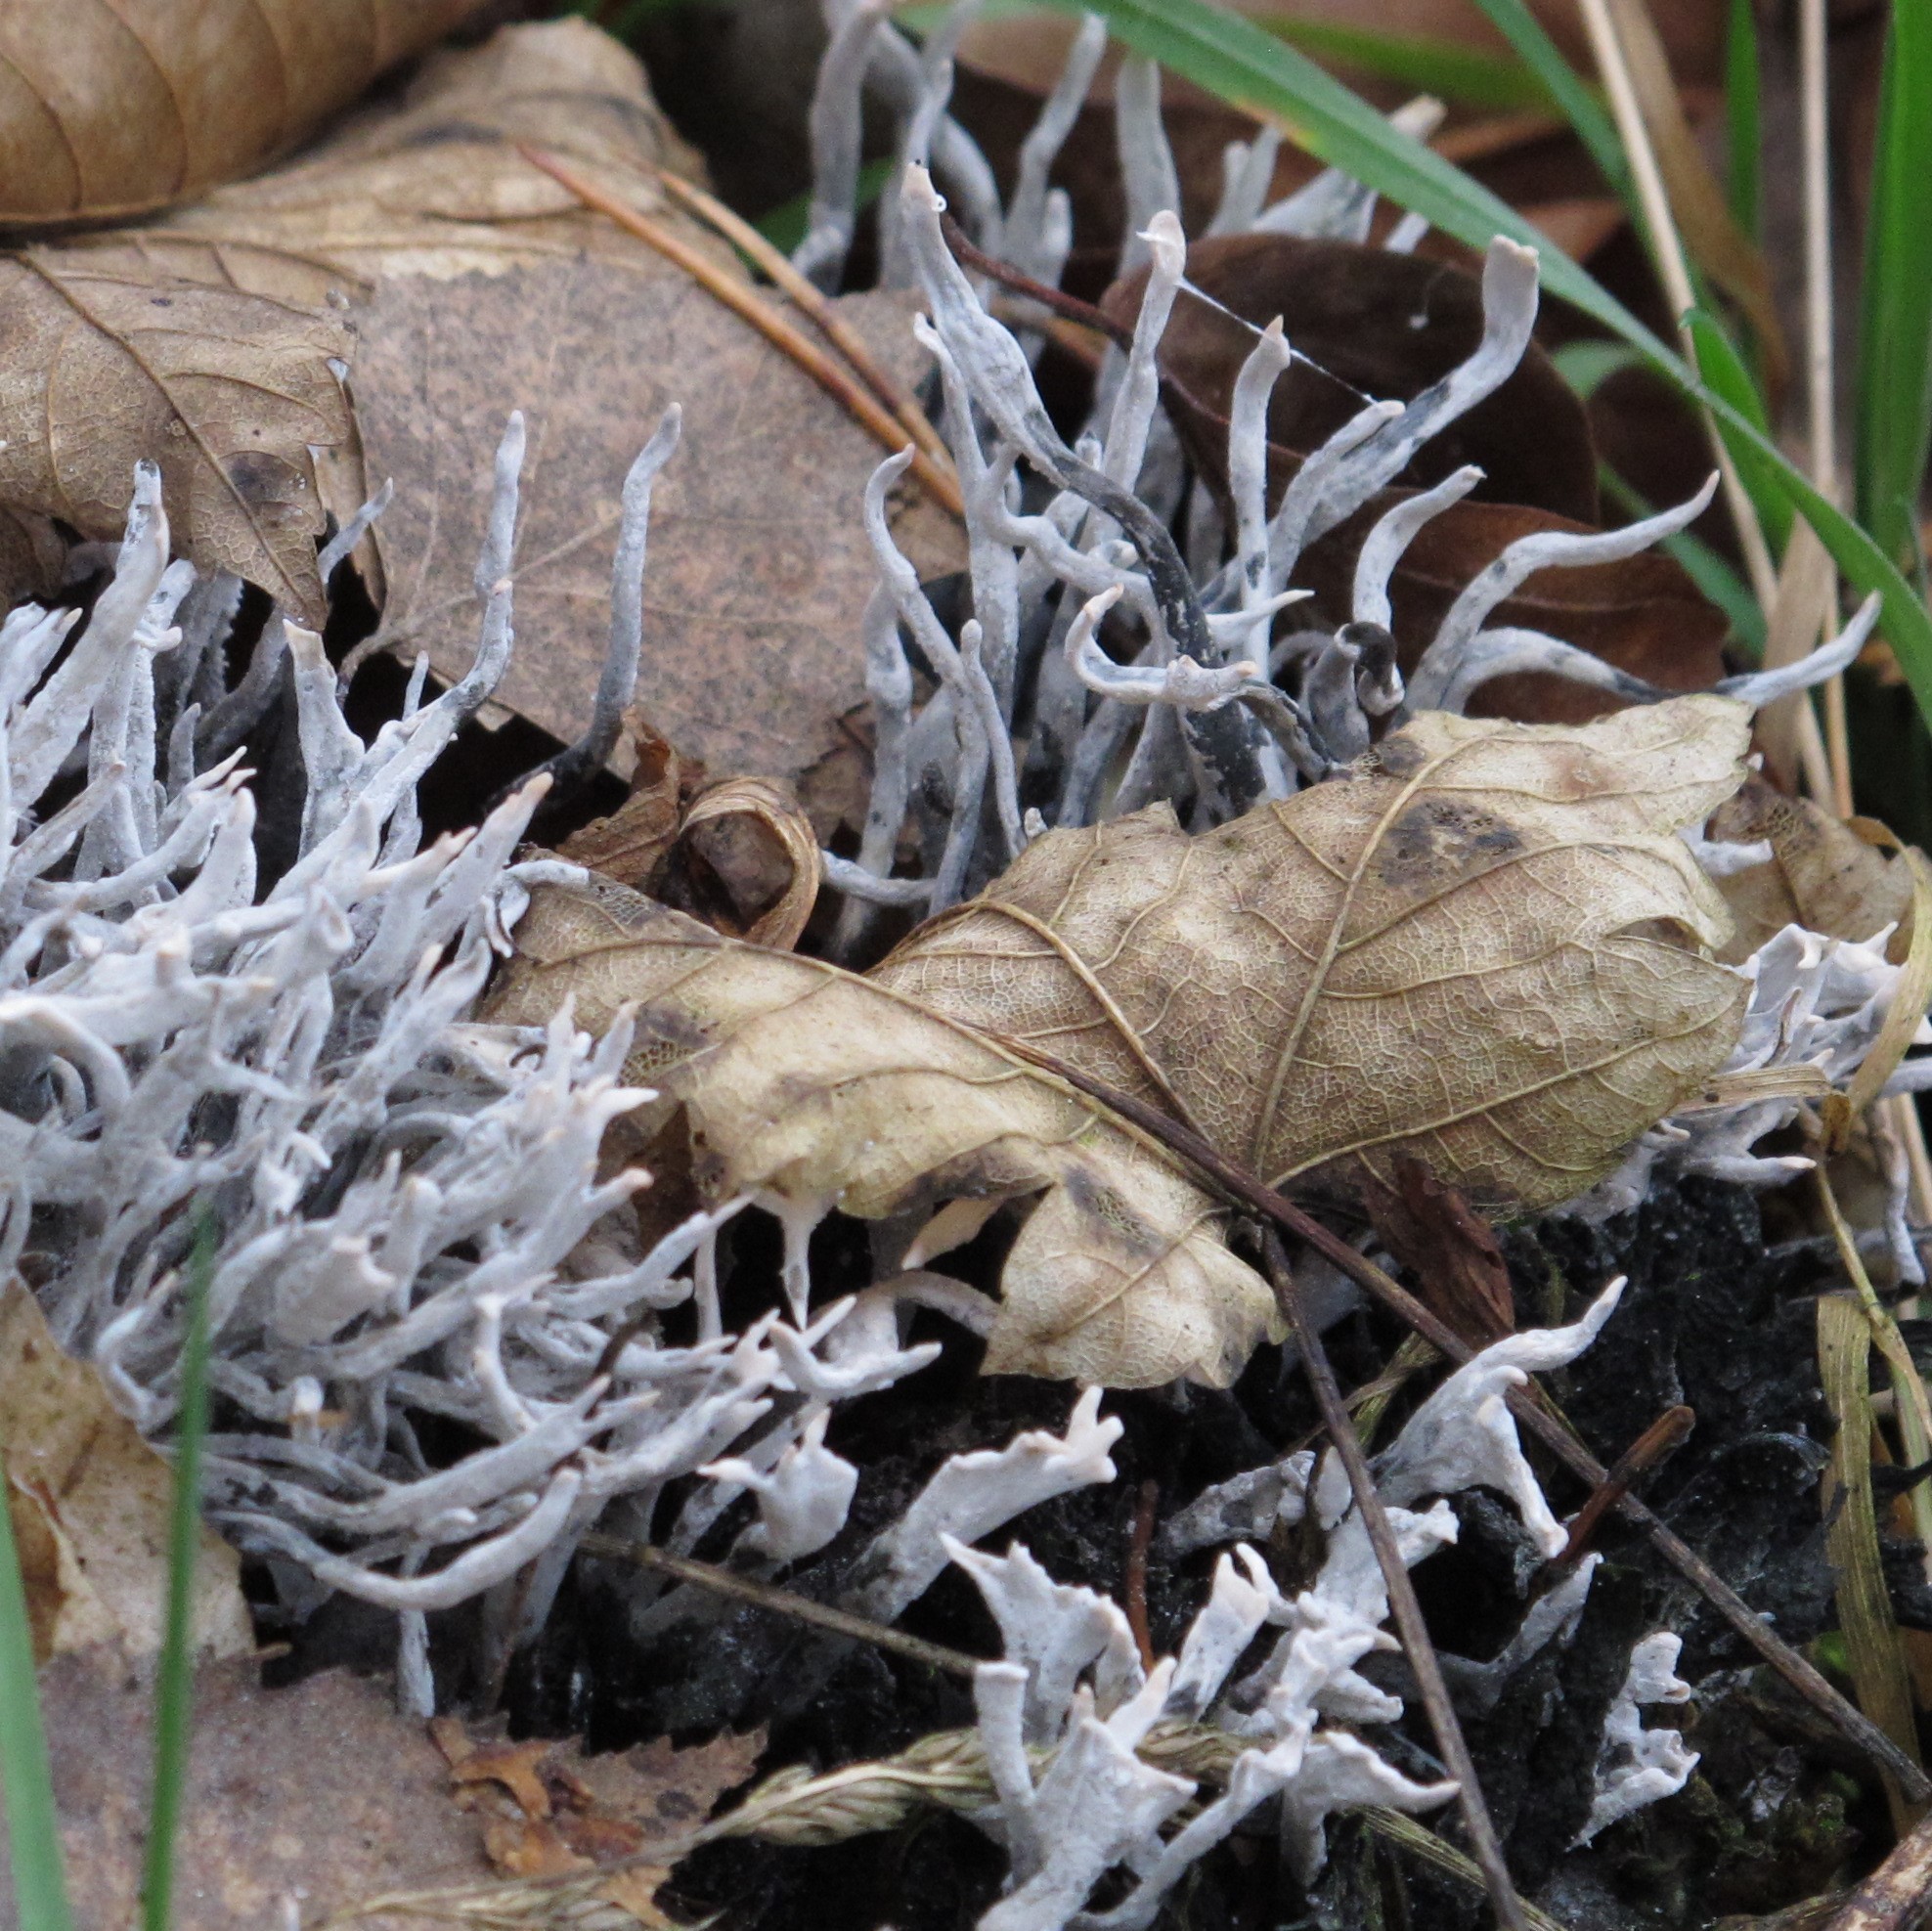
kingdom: Fungi
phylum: Ascomycota
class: Sordariomycetes
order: Xylariales
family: Xylariaceae
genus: Xylaria
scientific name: Xylaria hypoxylon
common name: Candle-snuff fungus
